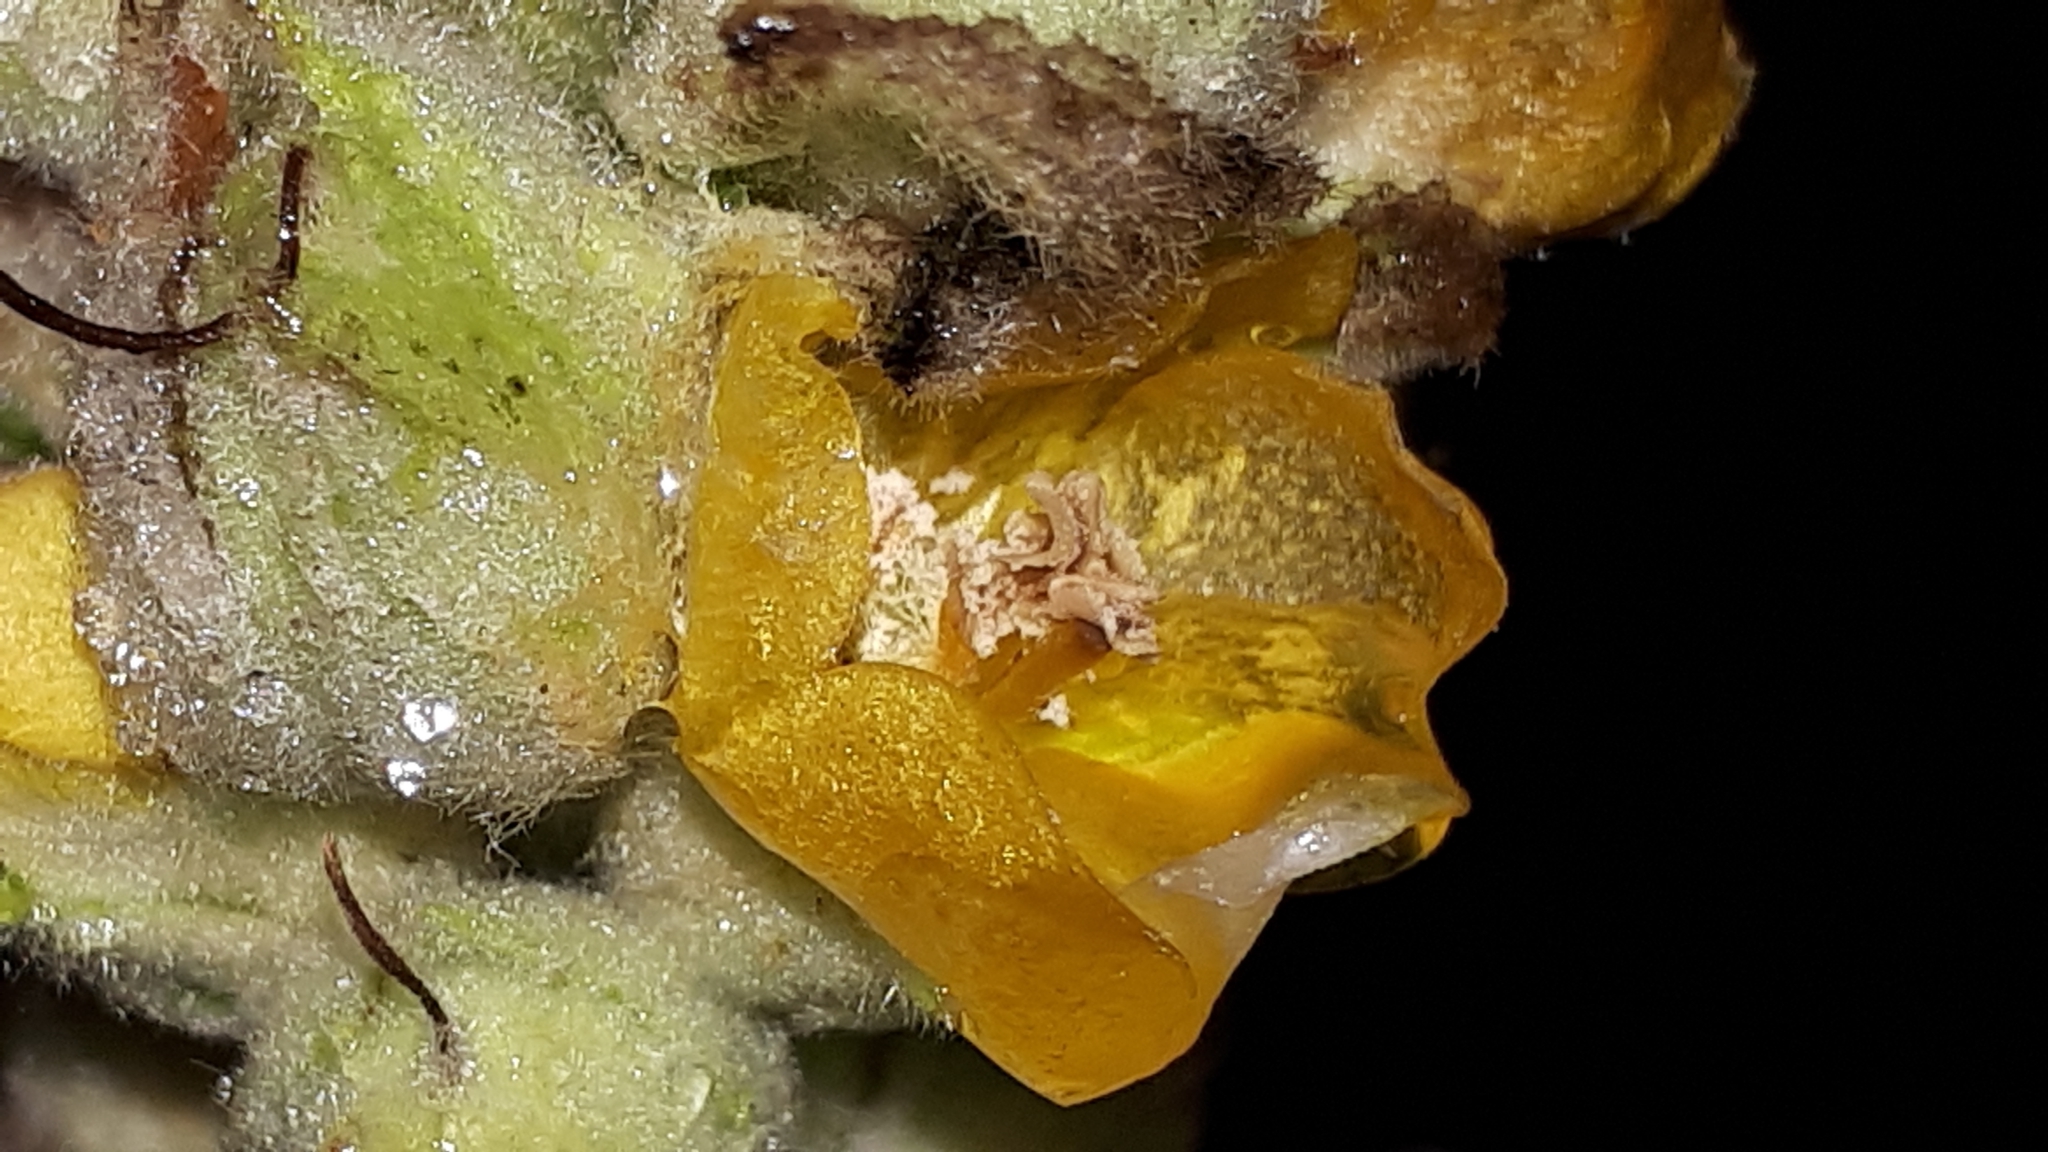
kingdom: Plantae
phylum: Tracheophyta
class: Magnoliopsida
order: Lamiales
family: Scrophulariaceae
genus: Verbascum
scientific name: Verbascum thapsus
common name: Common mullein
